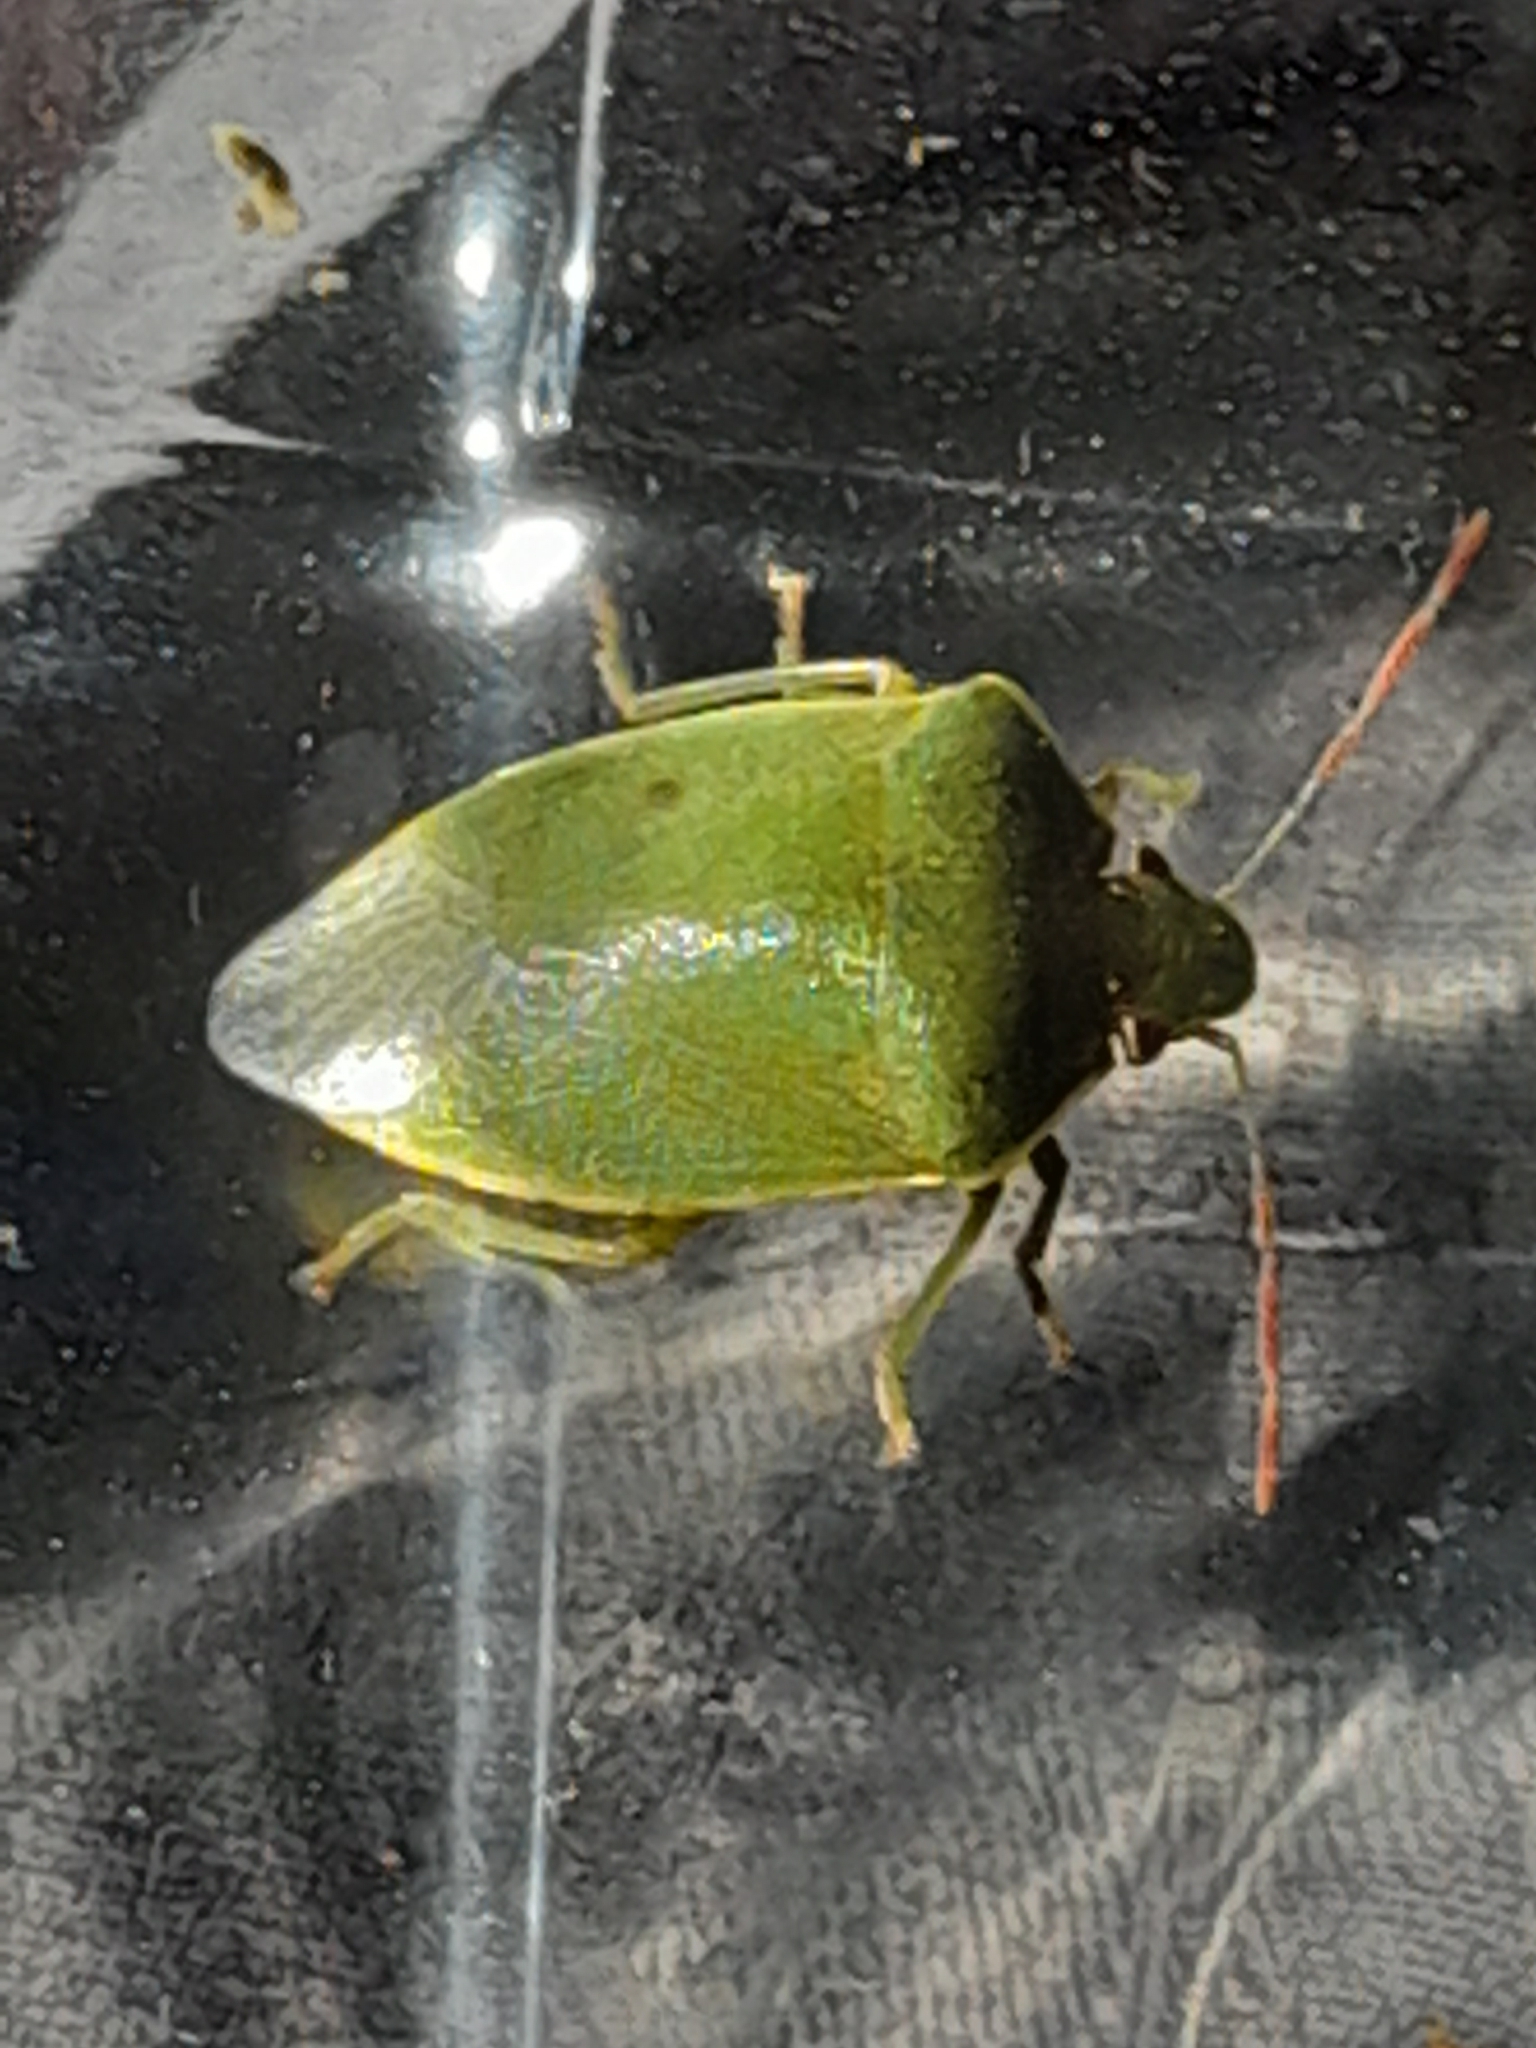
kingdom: Animalia
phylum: Arthropoda
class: Insecta
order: Hemiptera
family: Pentatomidae
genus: Acrosternum
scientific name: Acrosternum heegeri
